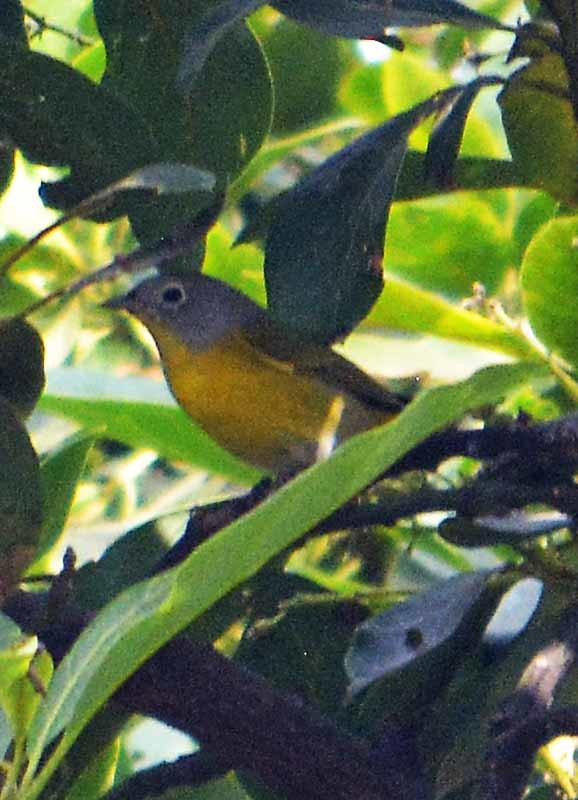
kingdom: Animalia
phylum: Chordata
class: Aves
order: Passeriformes
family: Parulidae
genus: Leiothlypis
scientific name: Leiothlypis ruficapilla
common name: Nashville warbler
